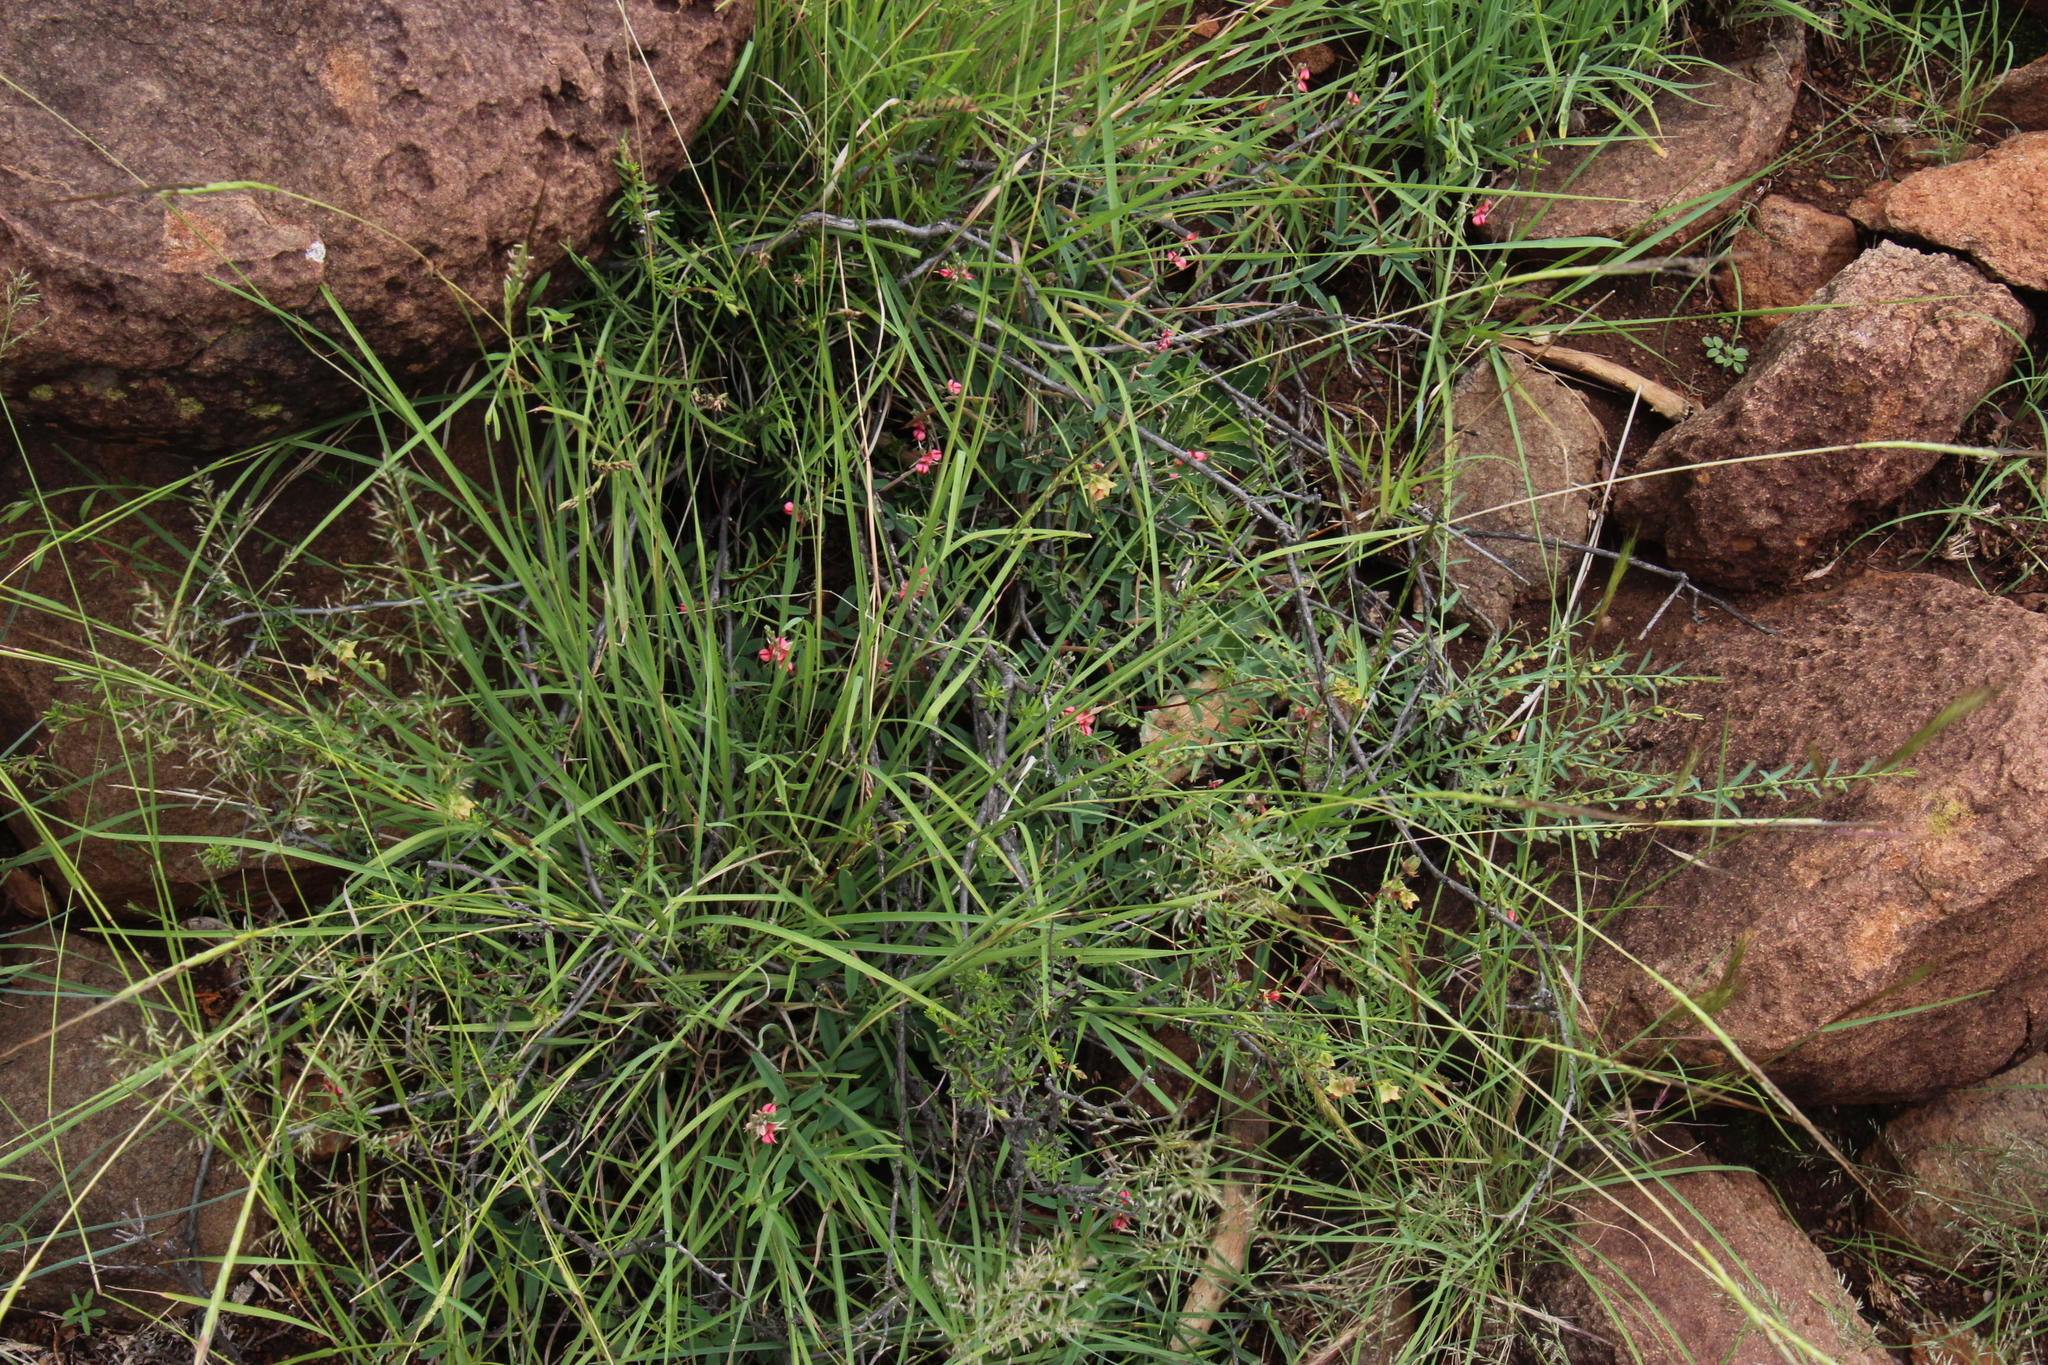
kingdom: Plantae
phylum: Tracheophyta
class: Magnoliopsida
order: Malvales
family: Malvaceae
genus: Hermannia
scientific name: Hermannia filifolia
